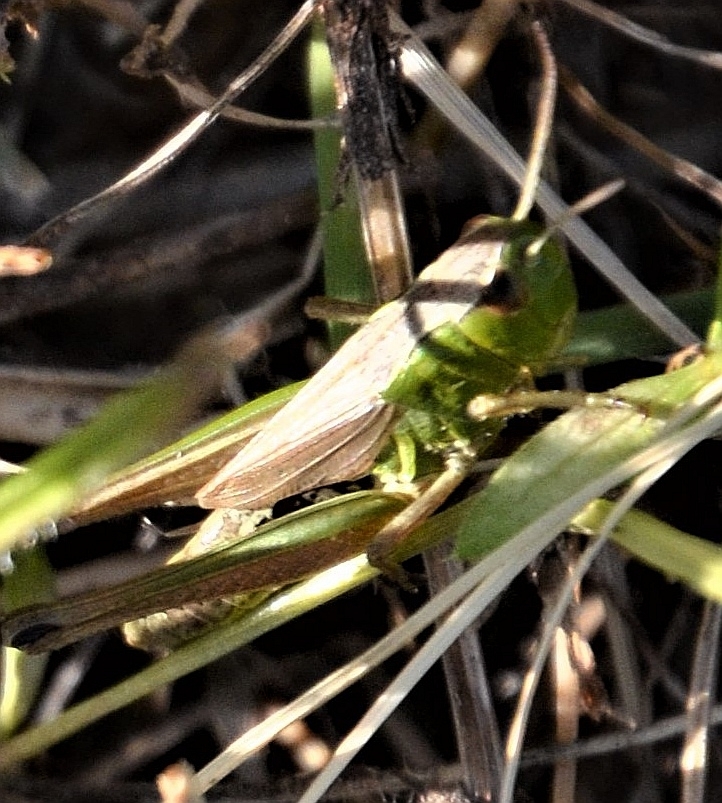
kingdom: Animalia
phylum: Arthropoda
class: Insecta
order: Orthoptera
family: Acrididae
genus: Pseudochorthippus
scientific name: Pseudochorthippus parallelus
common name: Meadow grasshopper
